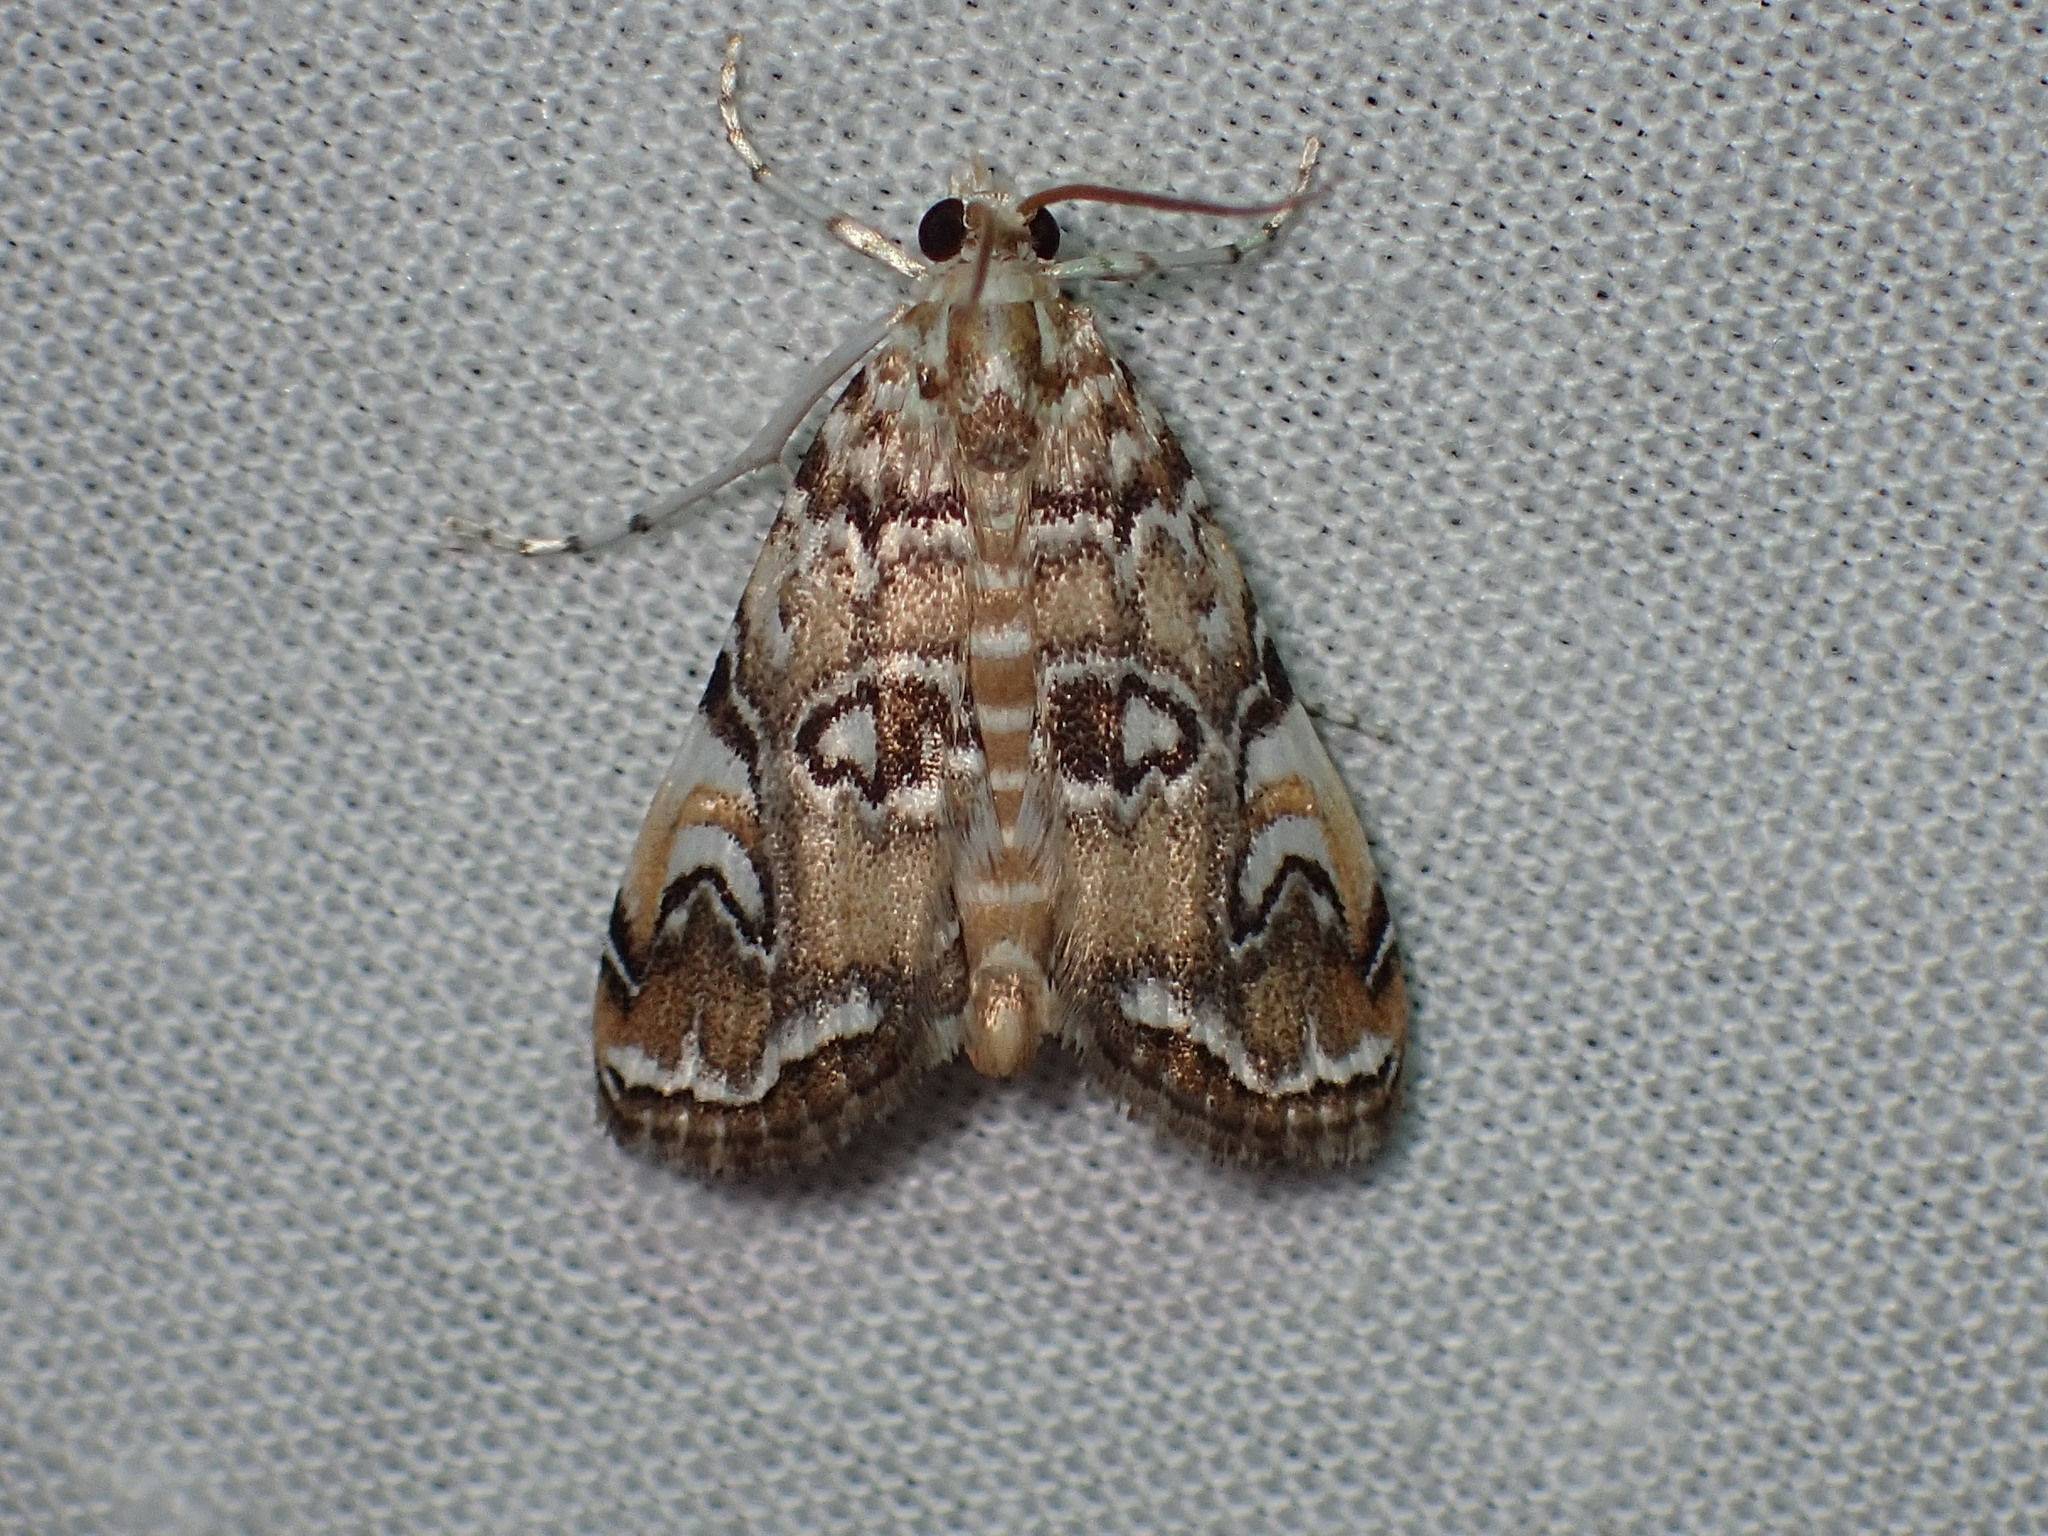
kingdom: Animalia
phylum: Arthropoda
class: Insecta
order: Lepidoptera
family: Crambidae
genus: Elophila
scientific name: Elophila gyralis
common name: Waterlily borer moth
